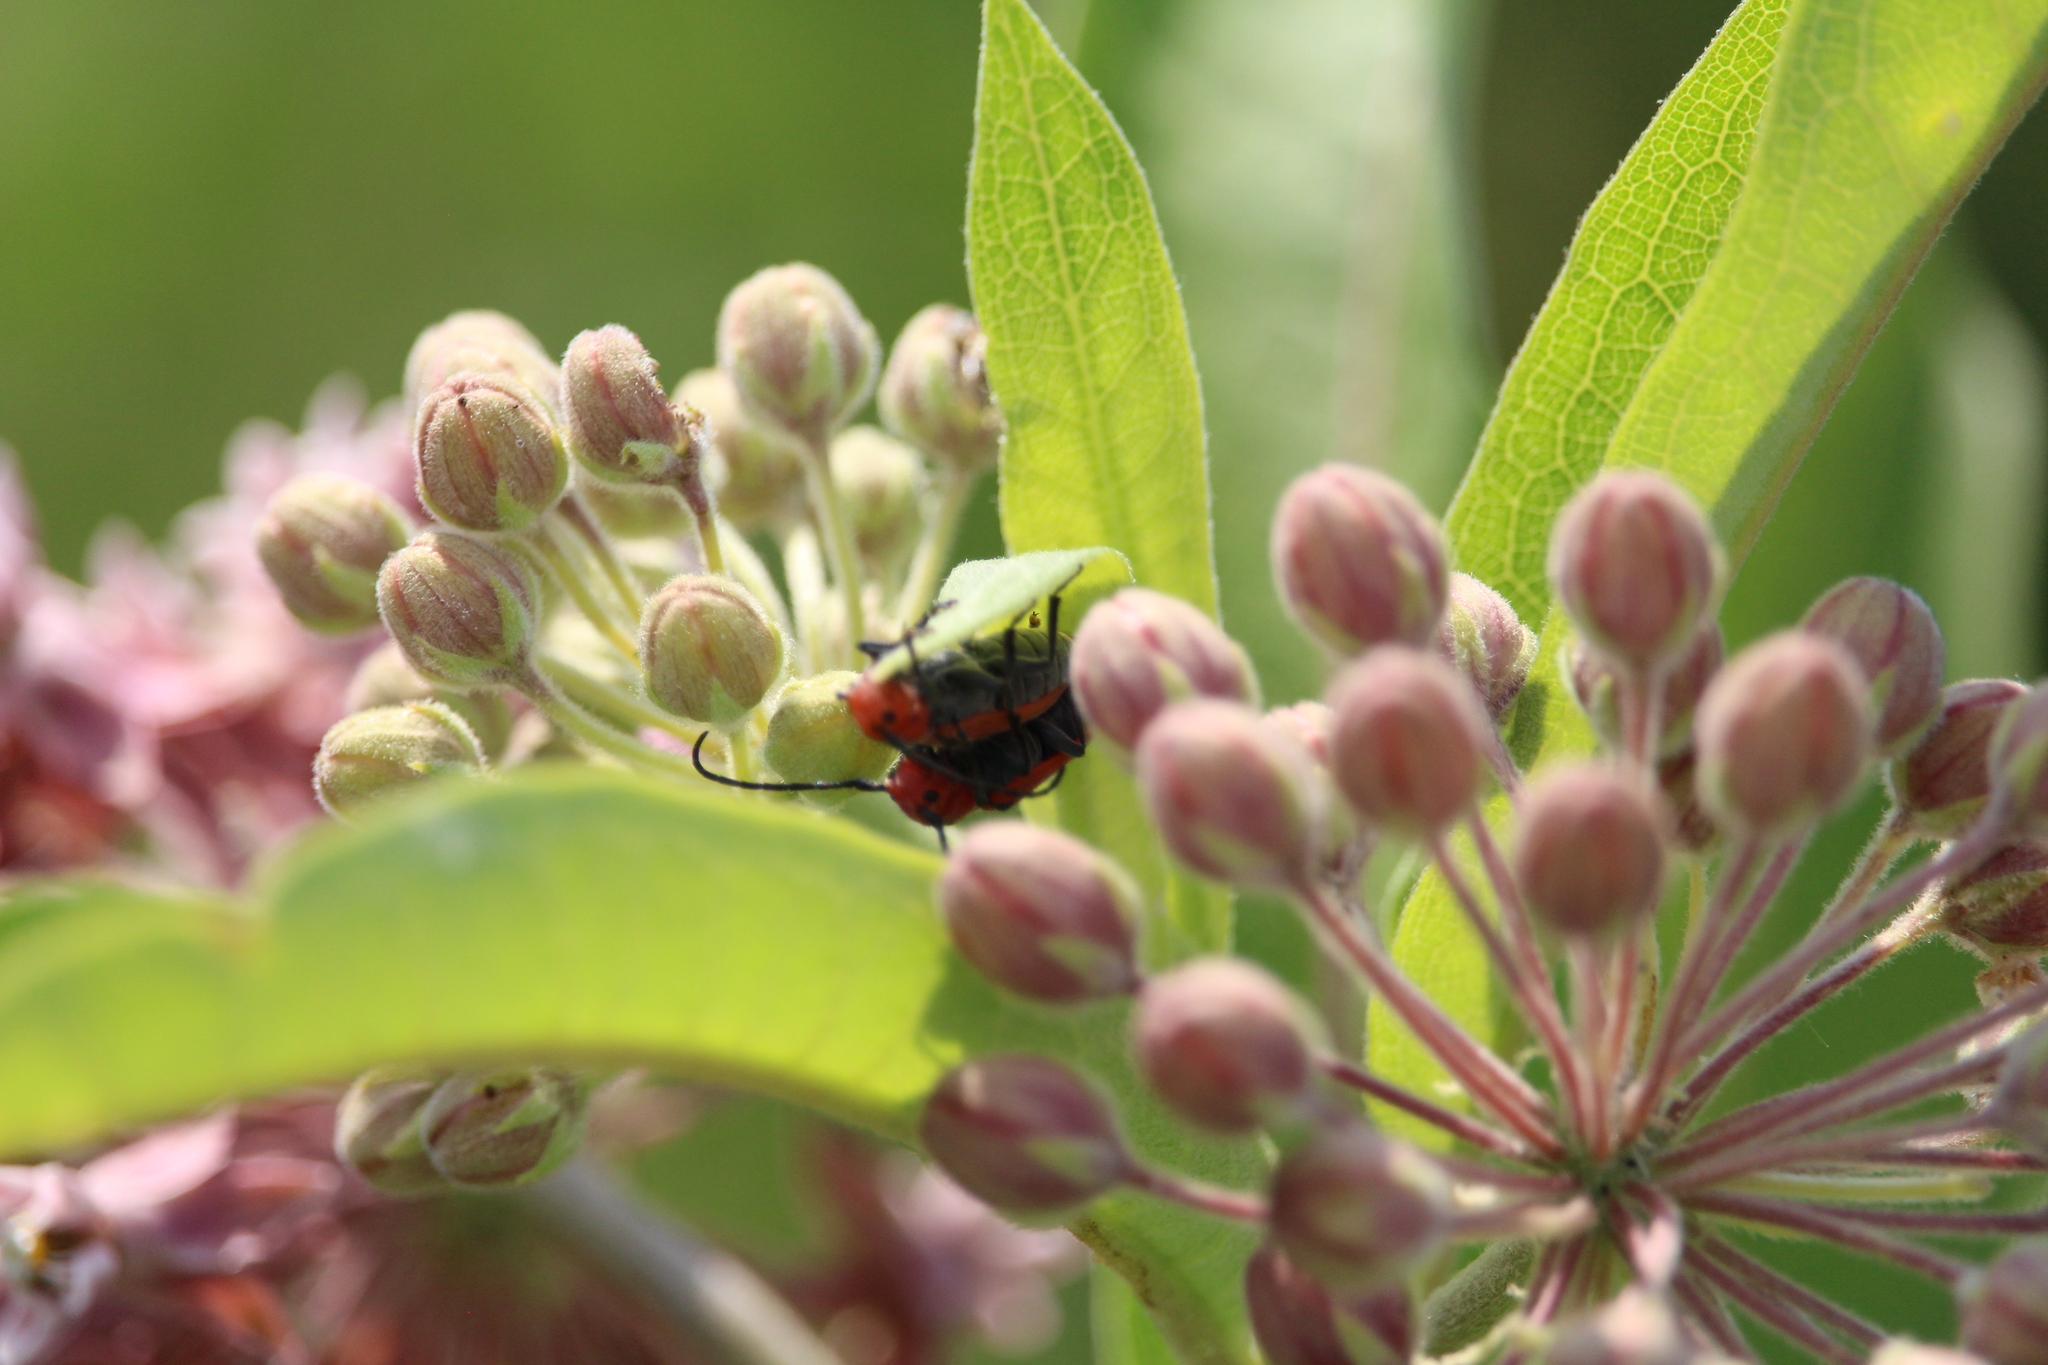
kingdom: Animalia
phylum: Arthropoda
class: Insecta
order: Coleoptera
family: Cerambycidae
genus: Tetraopes
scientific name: Tetraopes tetrophthalmus
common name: Red milkweed beetle
